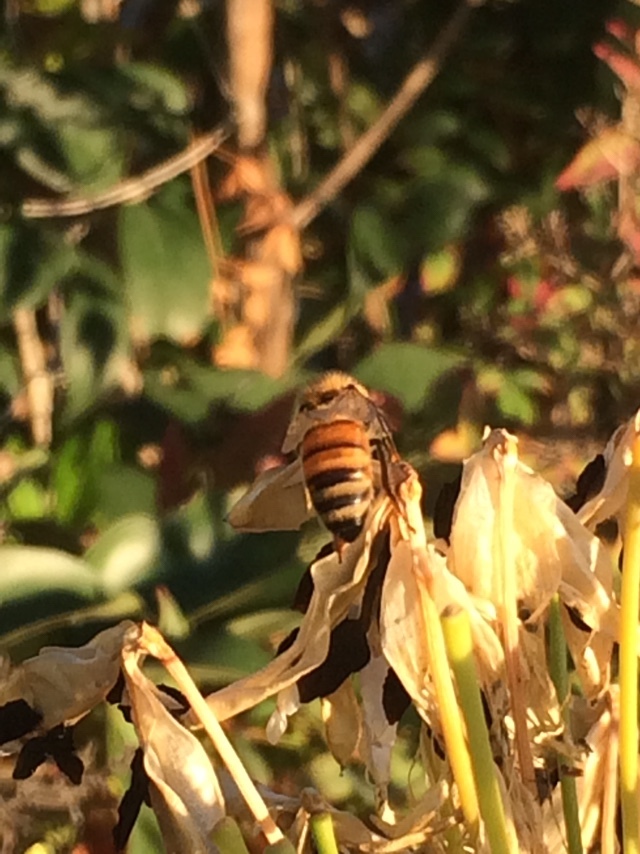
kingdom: Animalia
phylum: Arthropoda
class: Insecta
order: Hymenoptera
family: Apidae
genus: Apis
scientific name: Apis mellifera
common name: Honey bee
